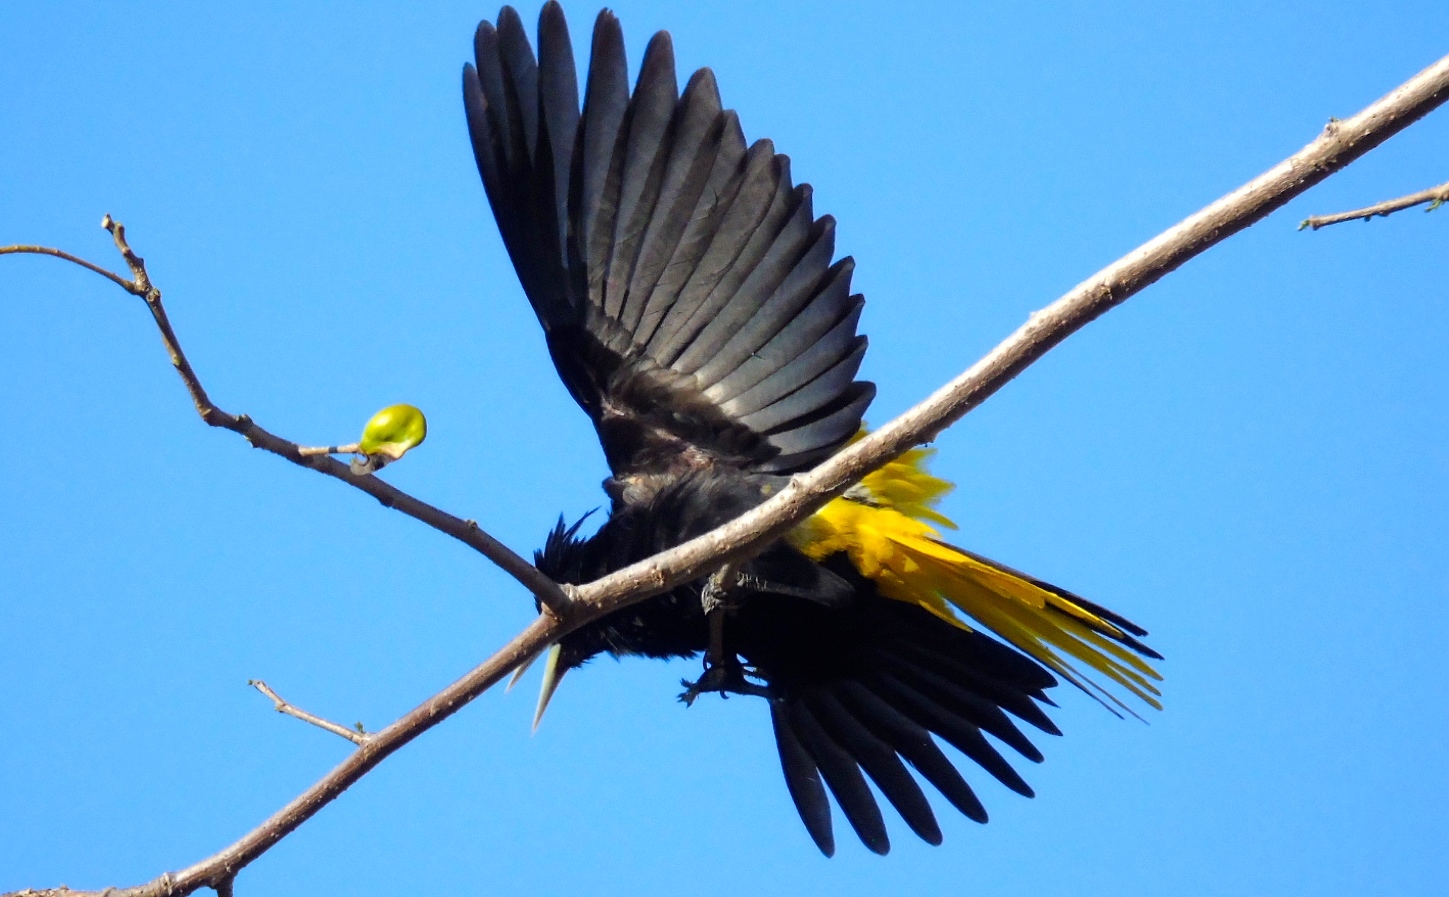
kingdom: Animalia
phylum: Chordata
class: Aves
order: Passeriformes
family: Icteridae
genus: Cacicus
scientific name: Cacicus melanicterus
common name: Yellow-winged cacique
